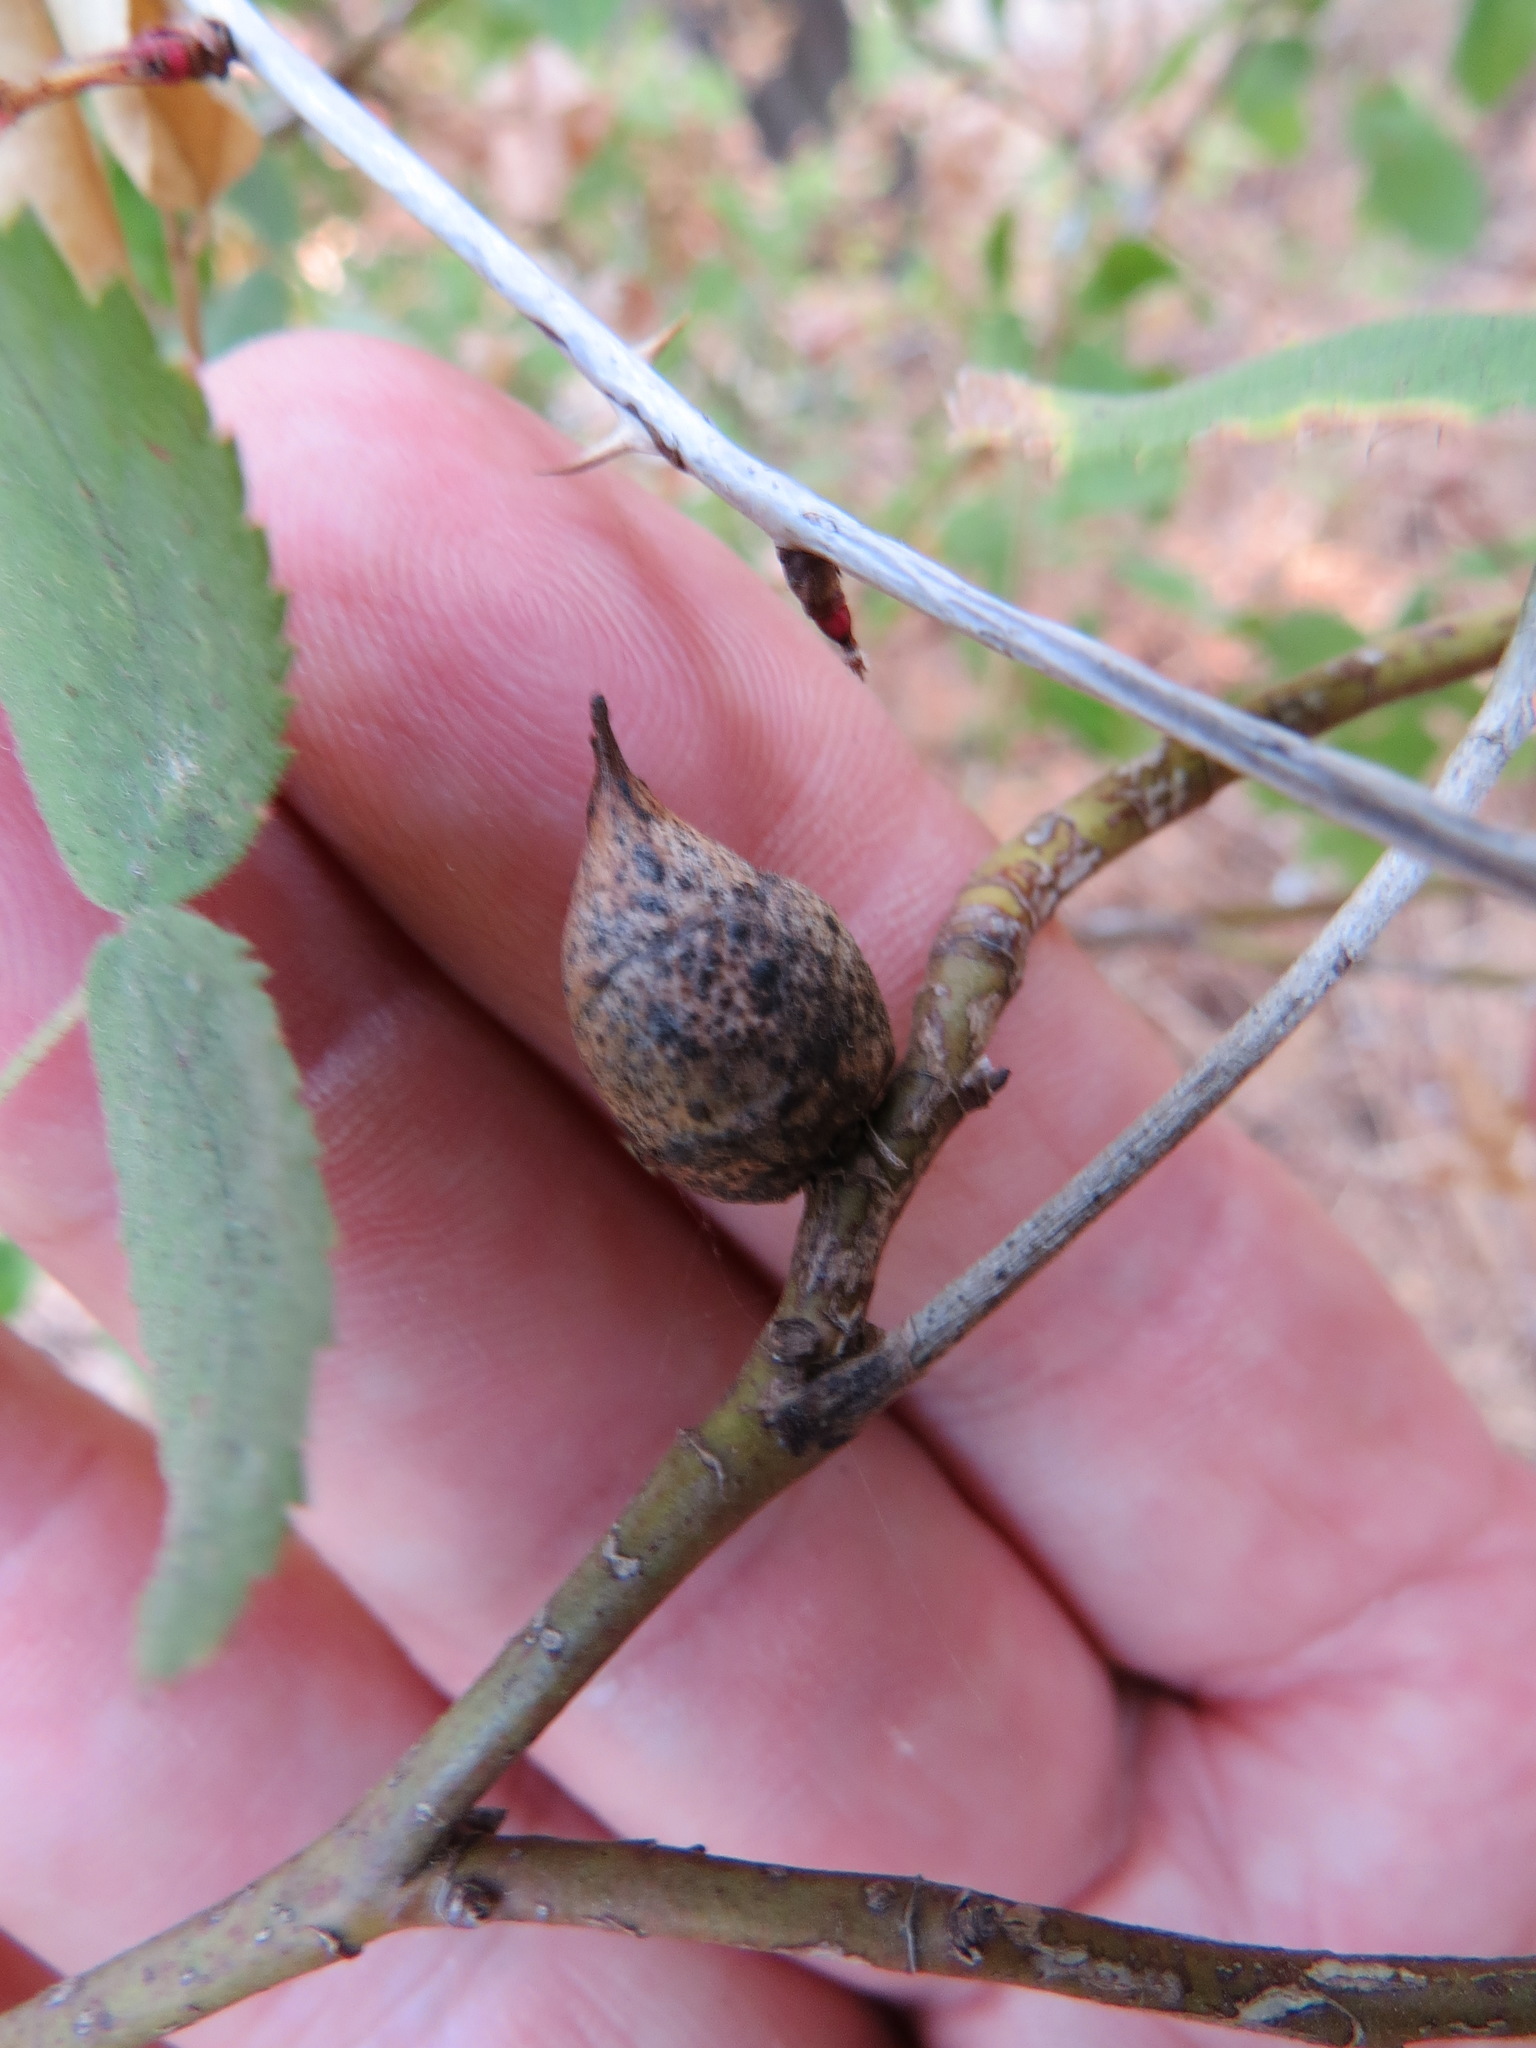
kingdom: Animalia
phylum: Arthropoda
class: Insecta
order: Hymenoptera
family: Cynipidae
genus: Diplolepis
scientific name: Diplolepis
